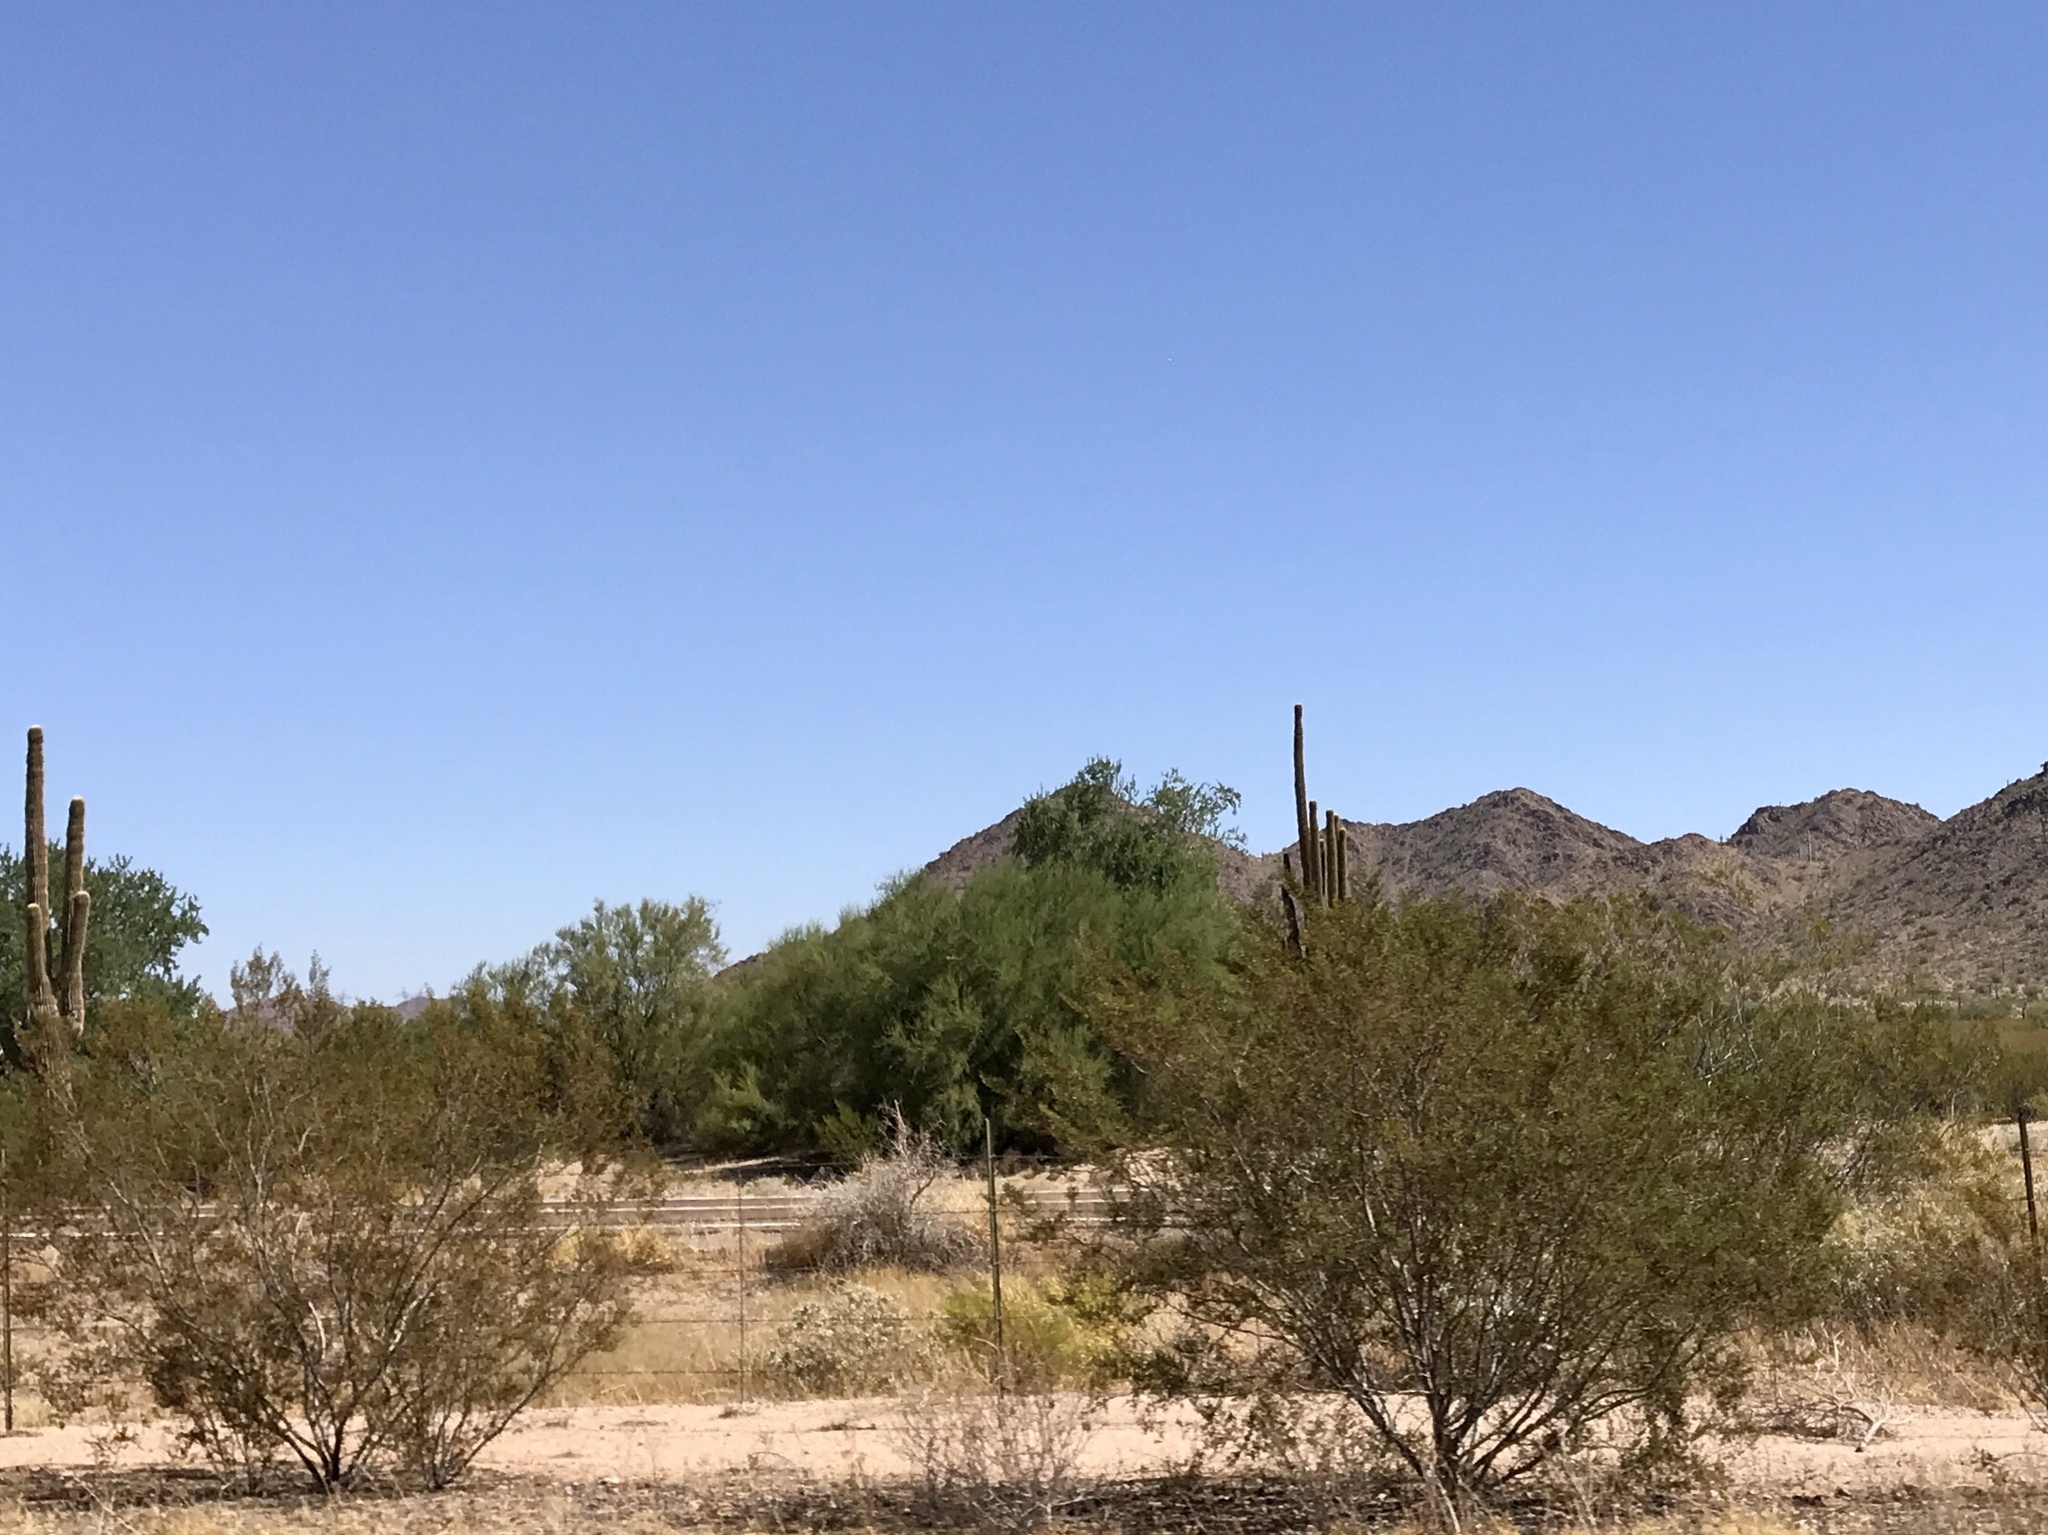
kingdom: Plantae
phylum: Tracheophyta
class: Magnoliopsida
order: Zygophyllales
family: Zygophyllaceae
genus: Larrea
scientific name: Larrea tridentata
